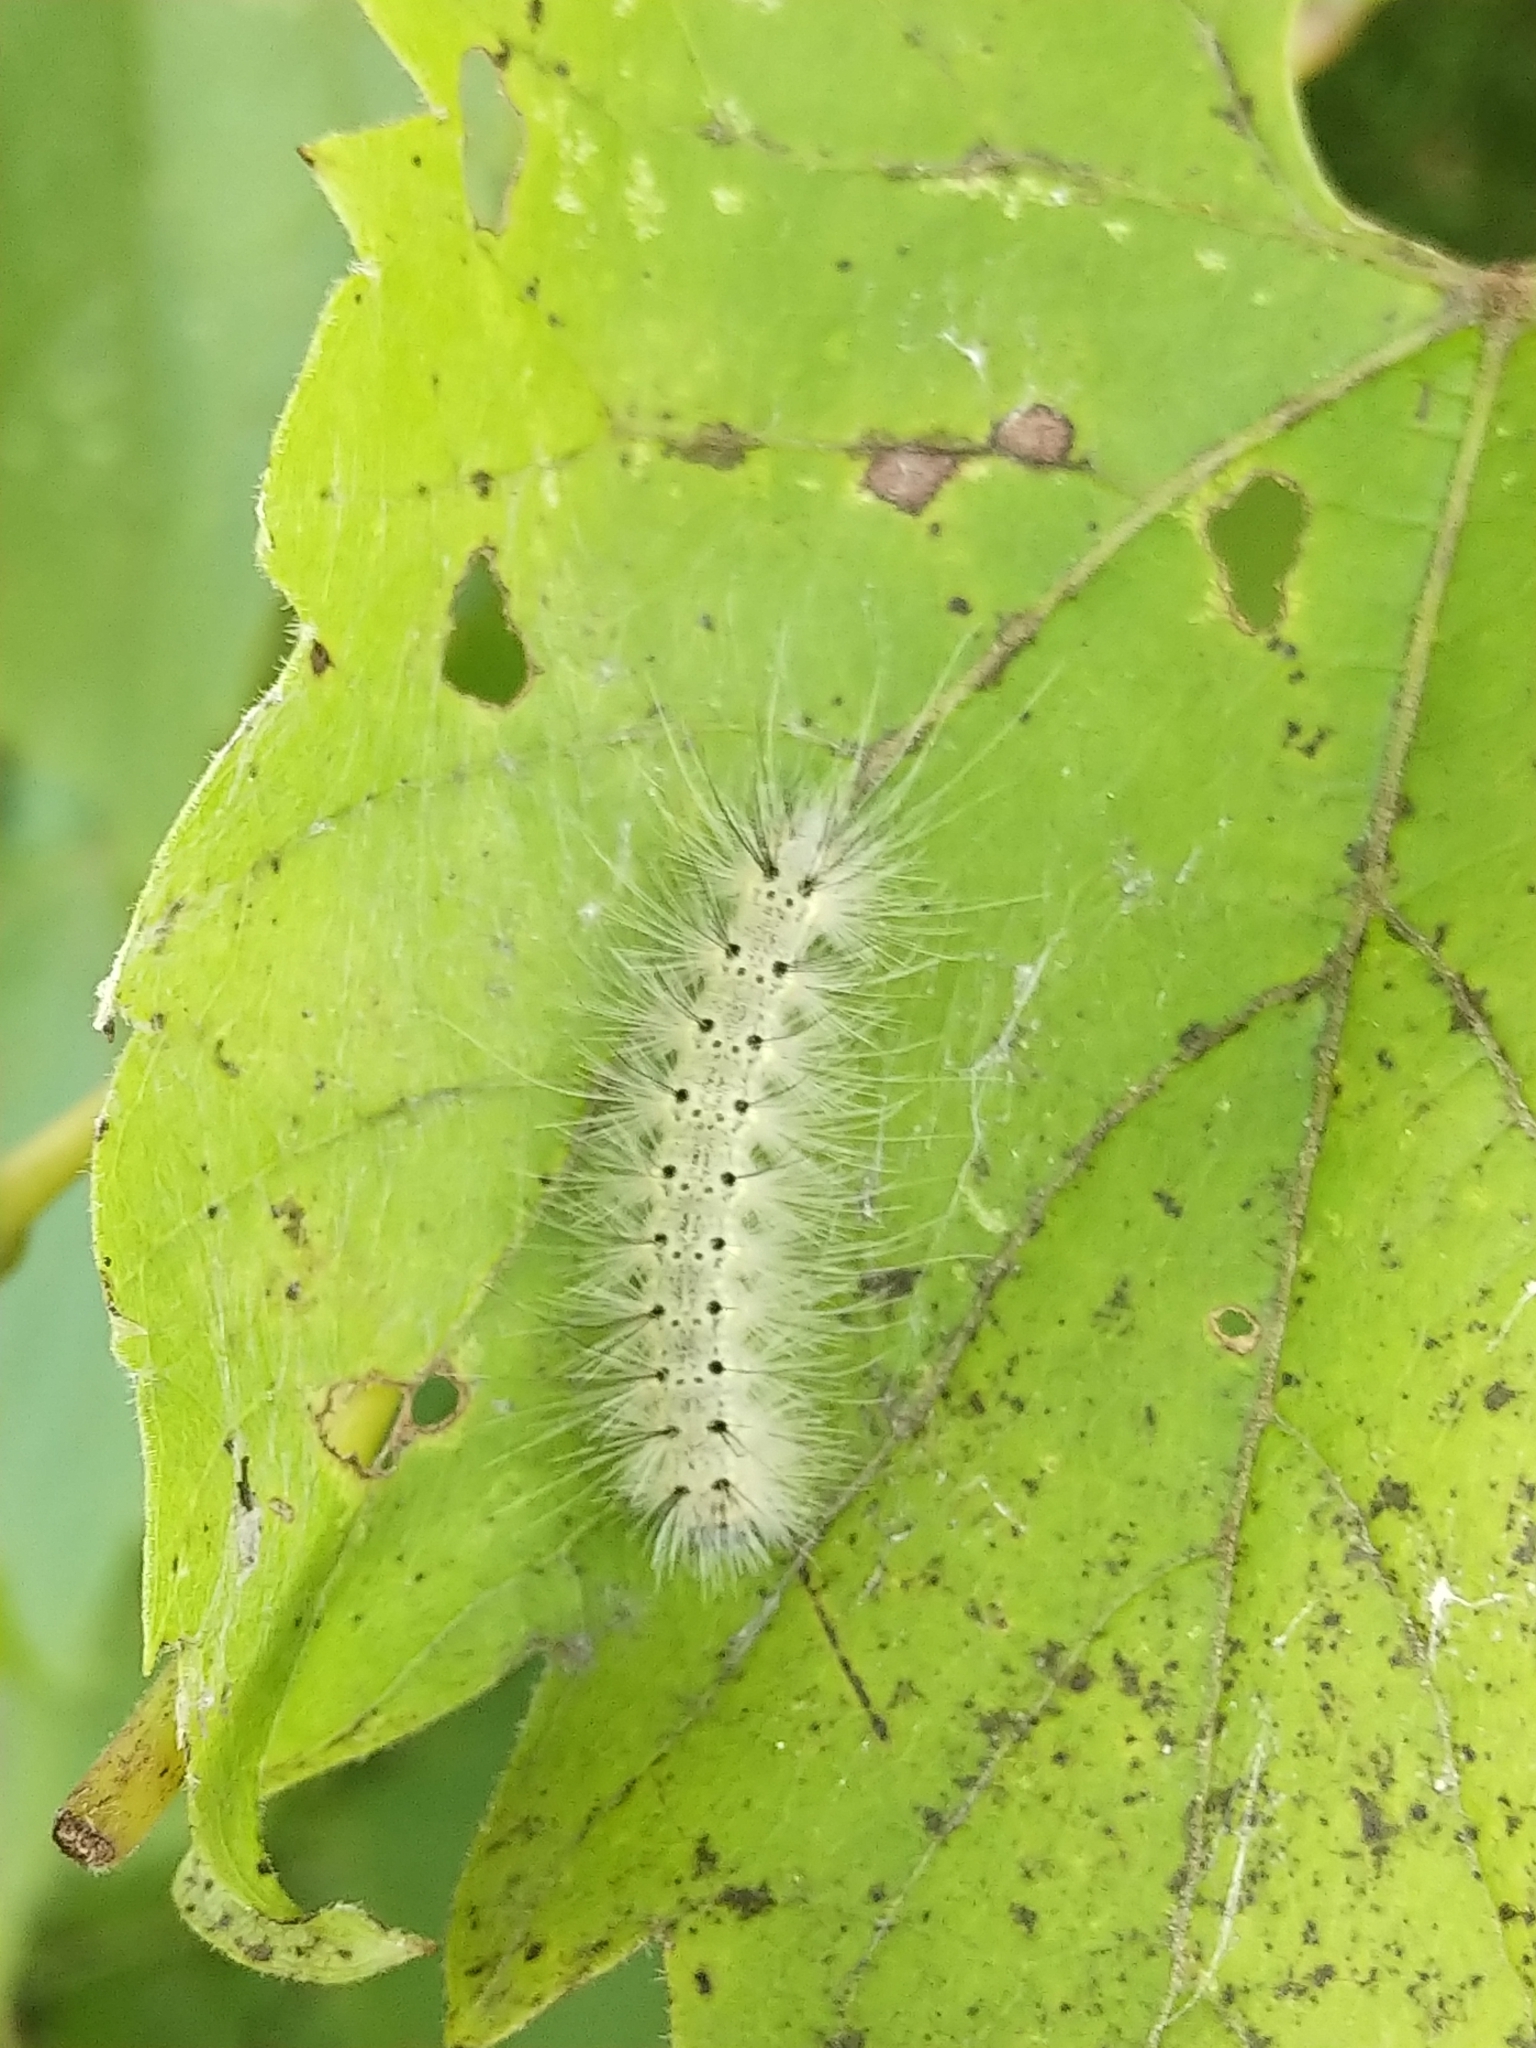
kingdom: Animalia
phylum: Arthropoda
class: Insecta
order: Lepidoptera
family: Erebidae
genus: Hyphantria
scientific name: Hyphantria cunea
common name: American white moth
